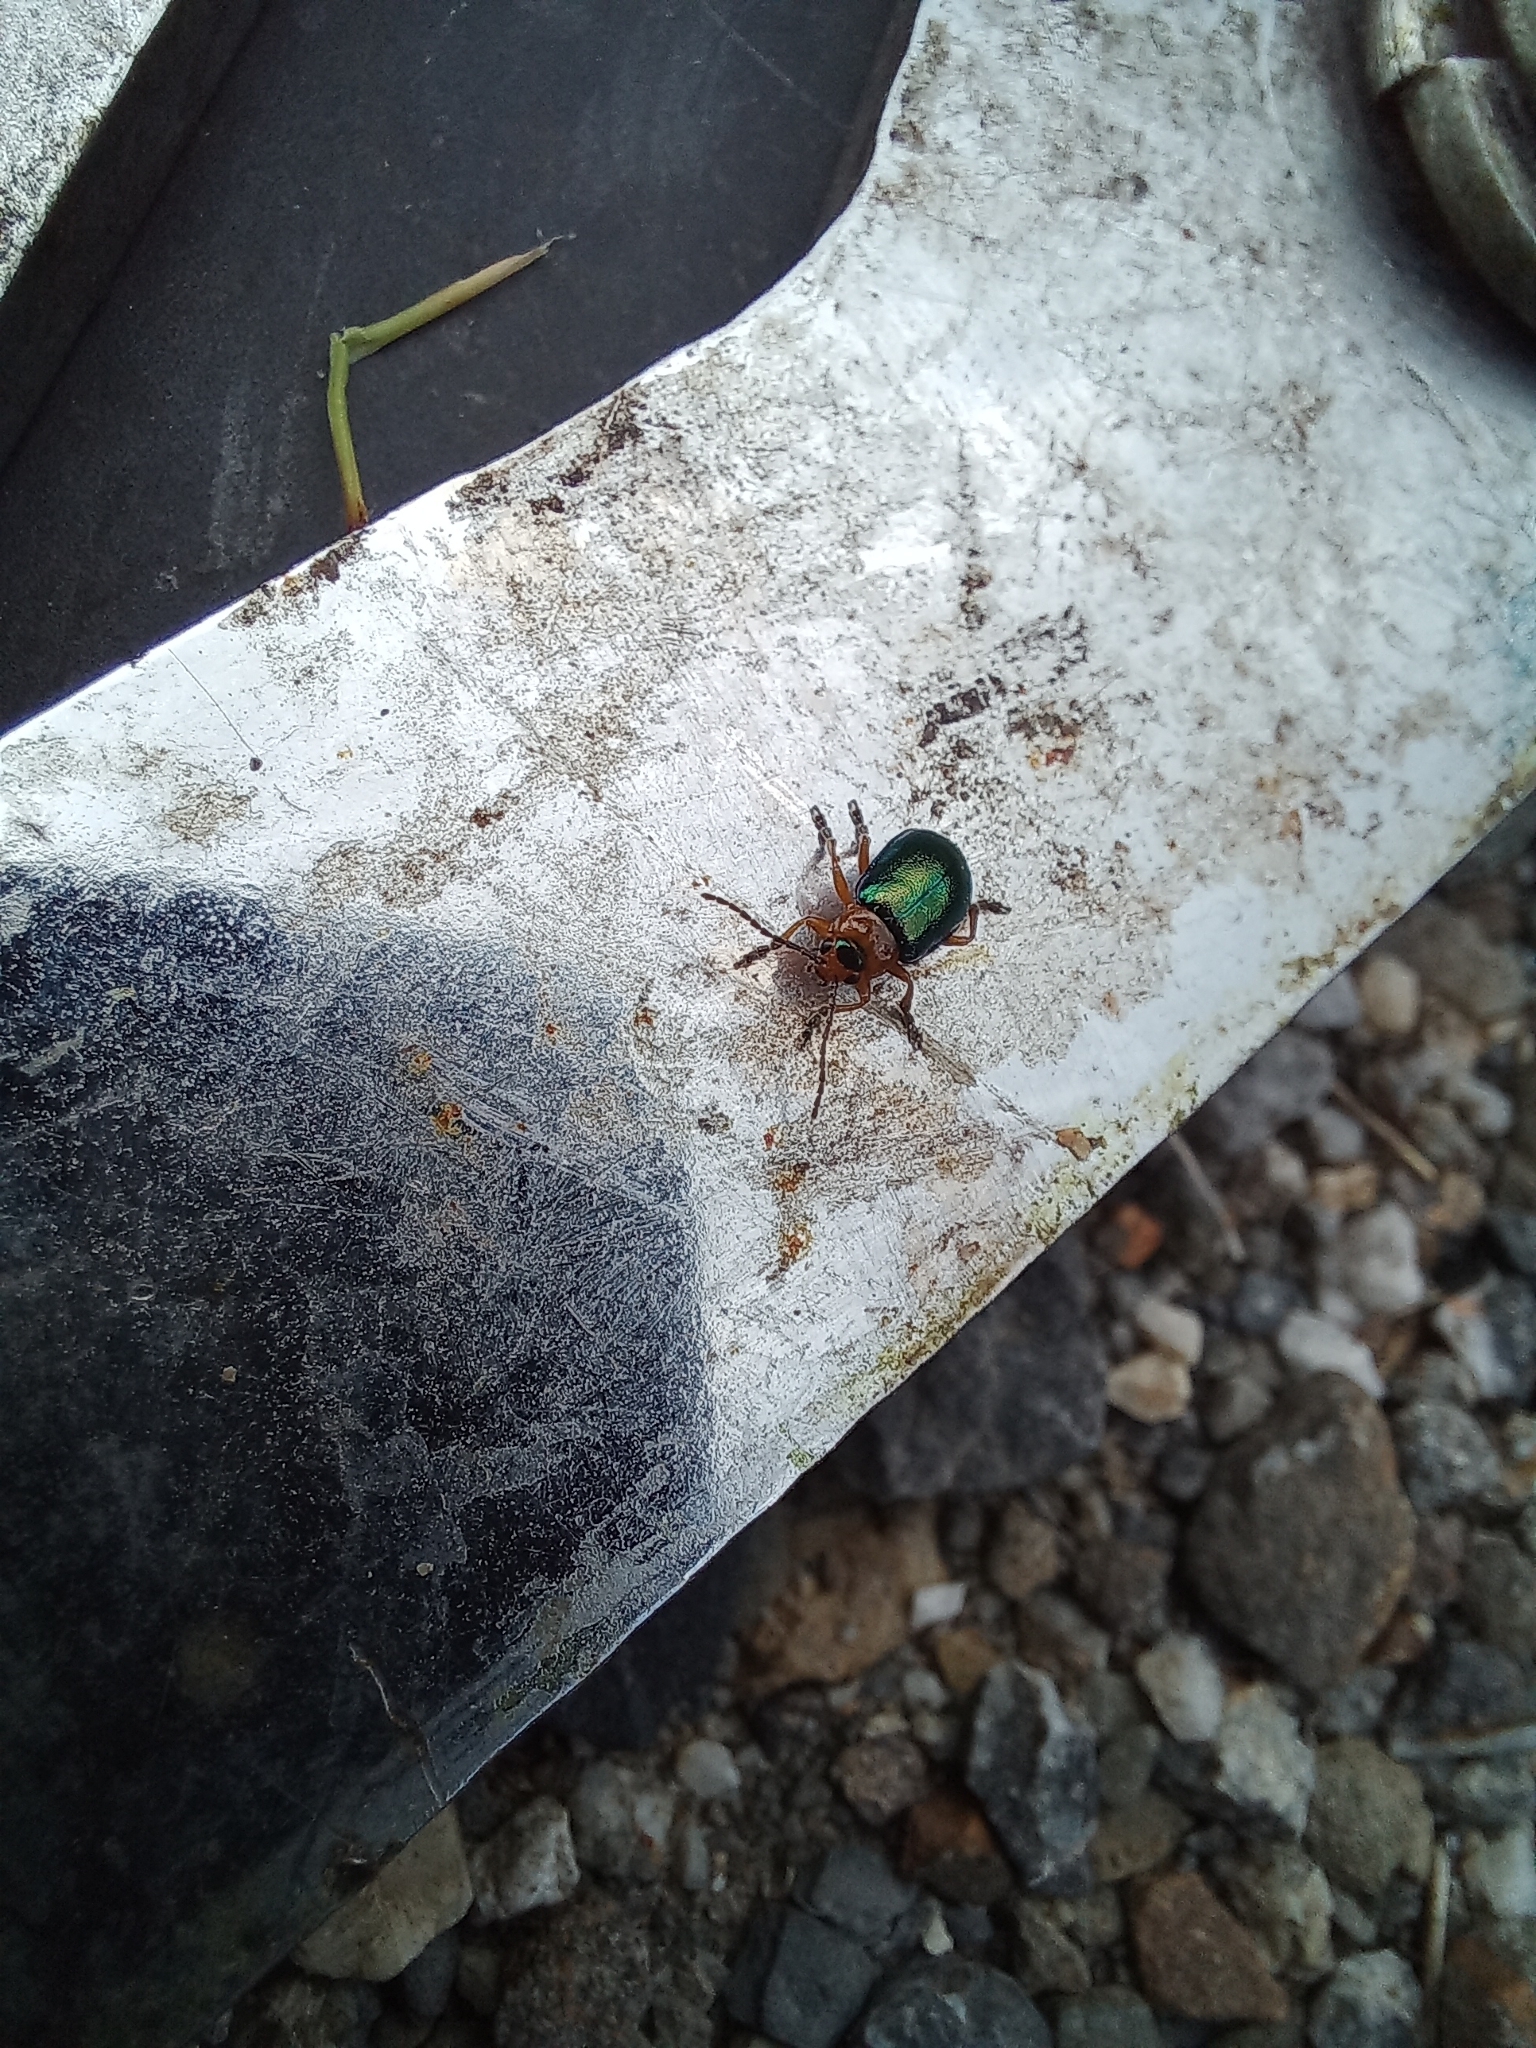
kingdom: Animalia
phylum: Arthropoda
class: Insecta
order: Coleoptera
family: Chrysomelidae
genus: Sermylassa
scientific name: Sermylassa halensis
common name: Leaf beetle
